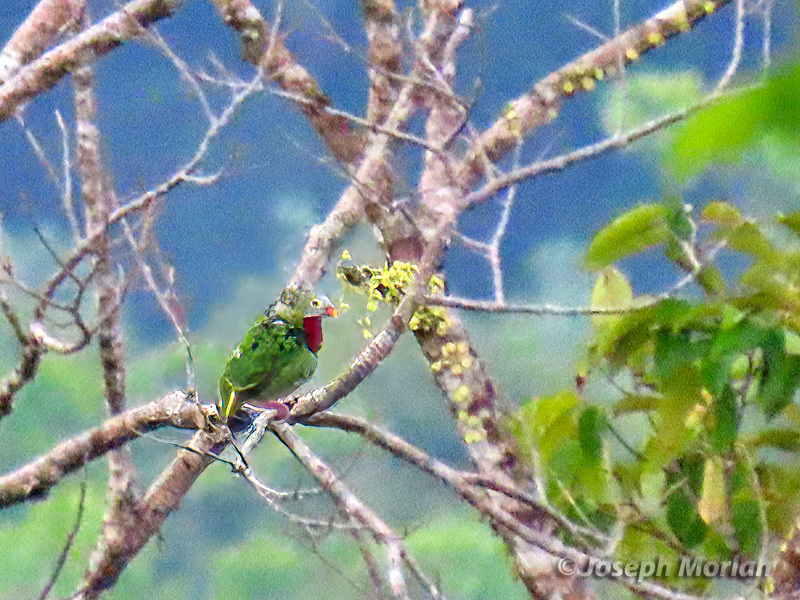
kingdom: Animalia
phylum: Chordata
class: Aves
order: Columbiformes
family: Columbidae
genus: Ptilinopus
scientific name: Ptilinopus viridis
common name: Claret-breasted fruit dove
